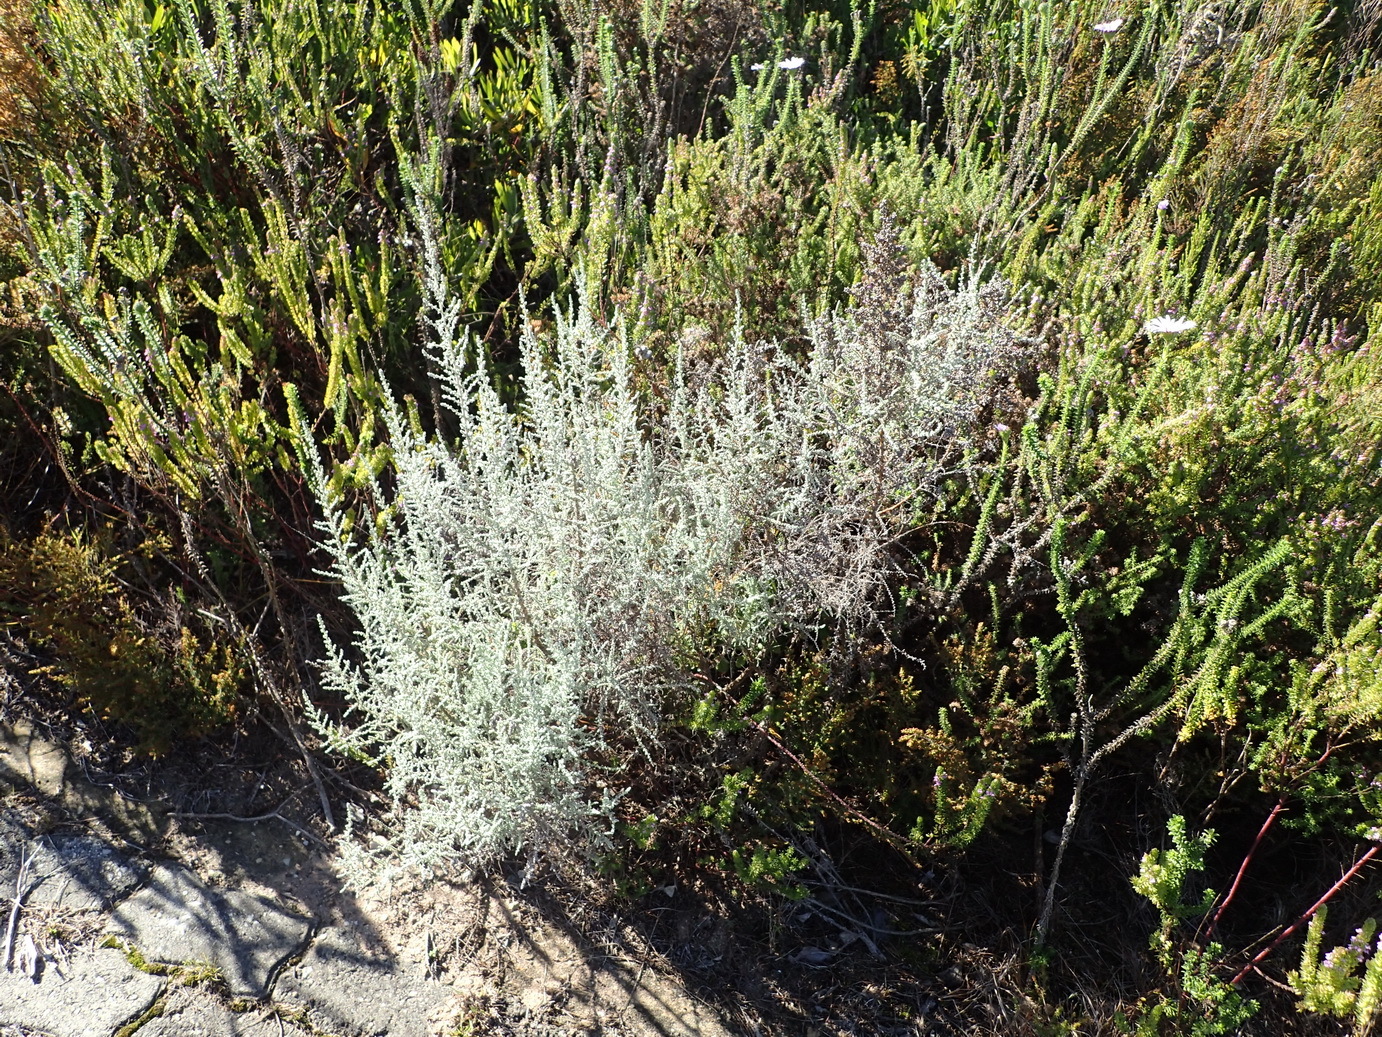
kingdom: Plantae
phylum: Tracheophyta
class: Magnoliopsida
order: Asterales
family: Asteraceae
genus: Seriphium
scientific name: Seriphium plumosum
